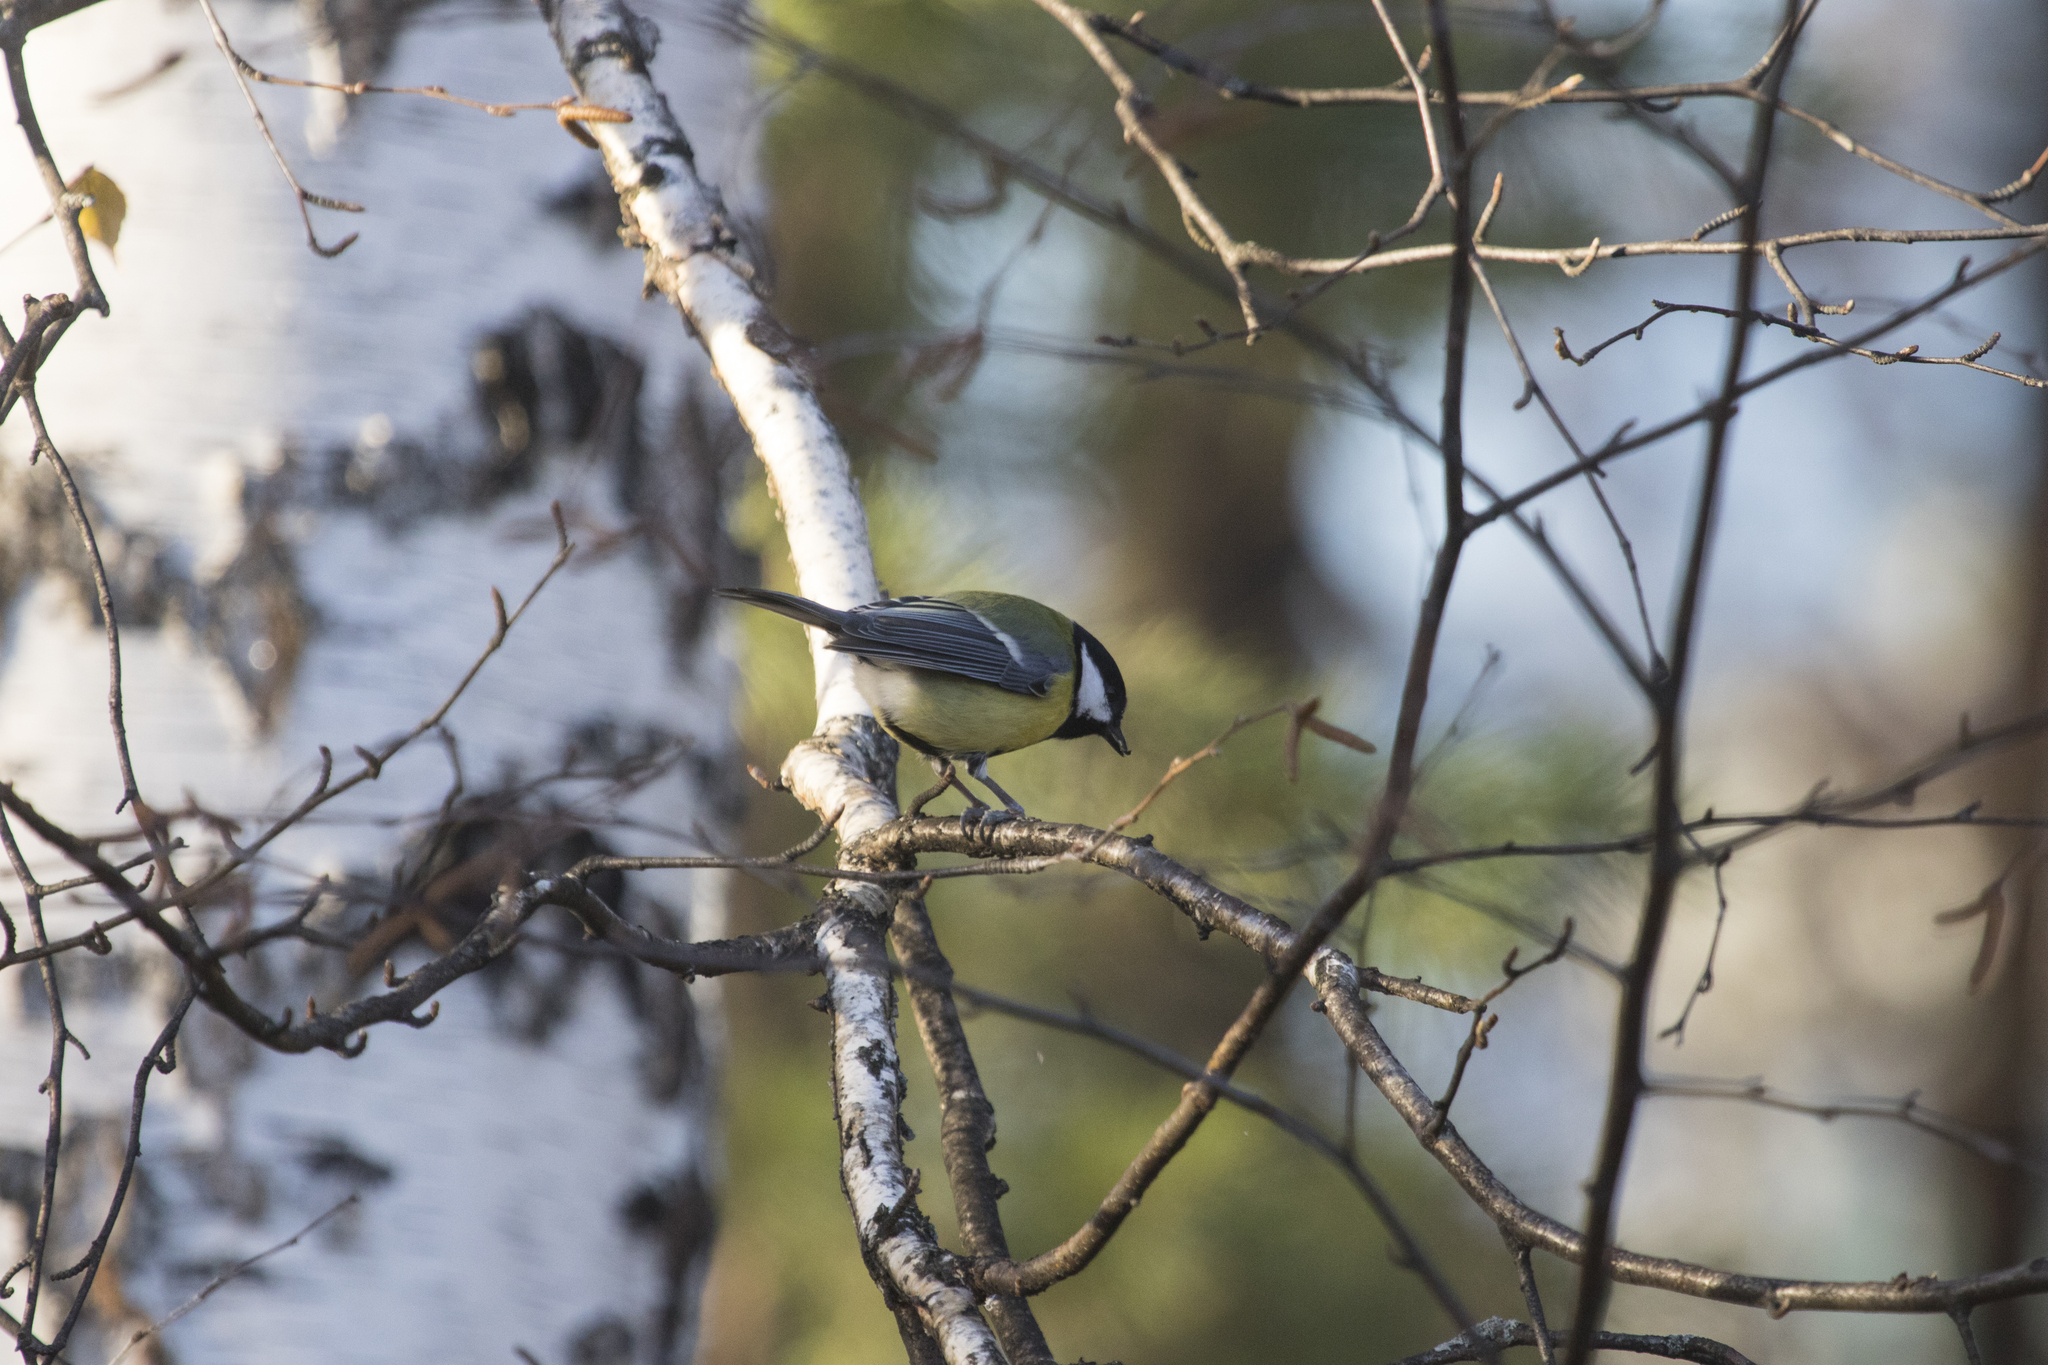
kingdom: Animalia
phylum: Chordata
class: Aves
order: Passeriformes
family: Paridae
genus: Parus
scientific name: Parus major
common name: Great tit
